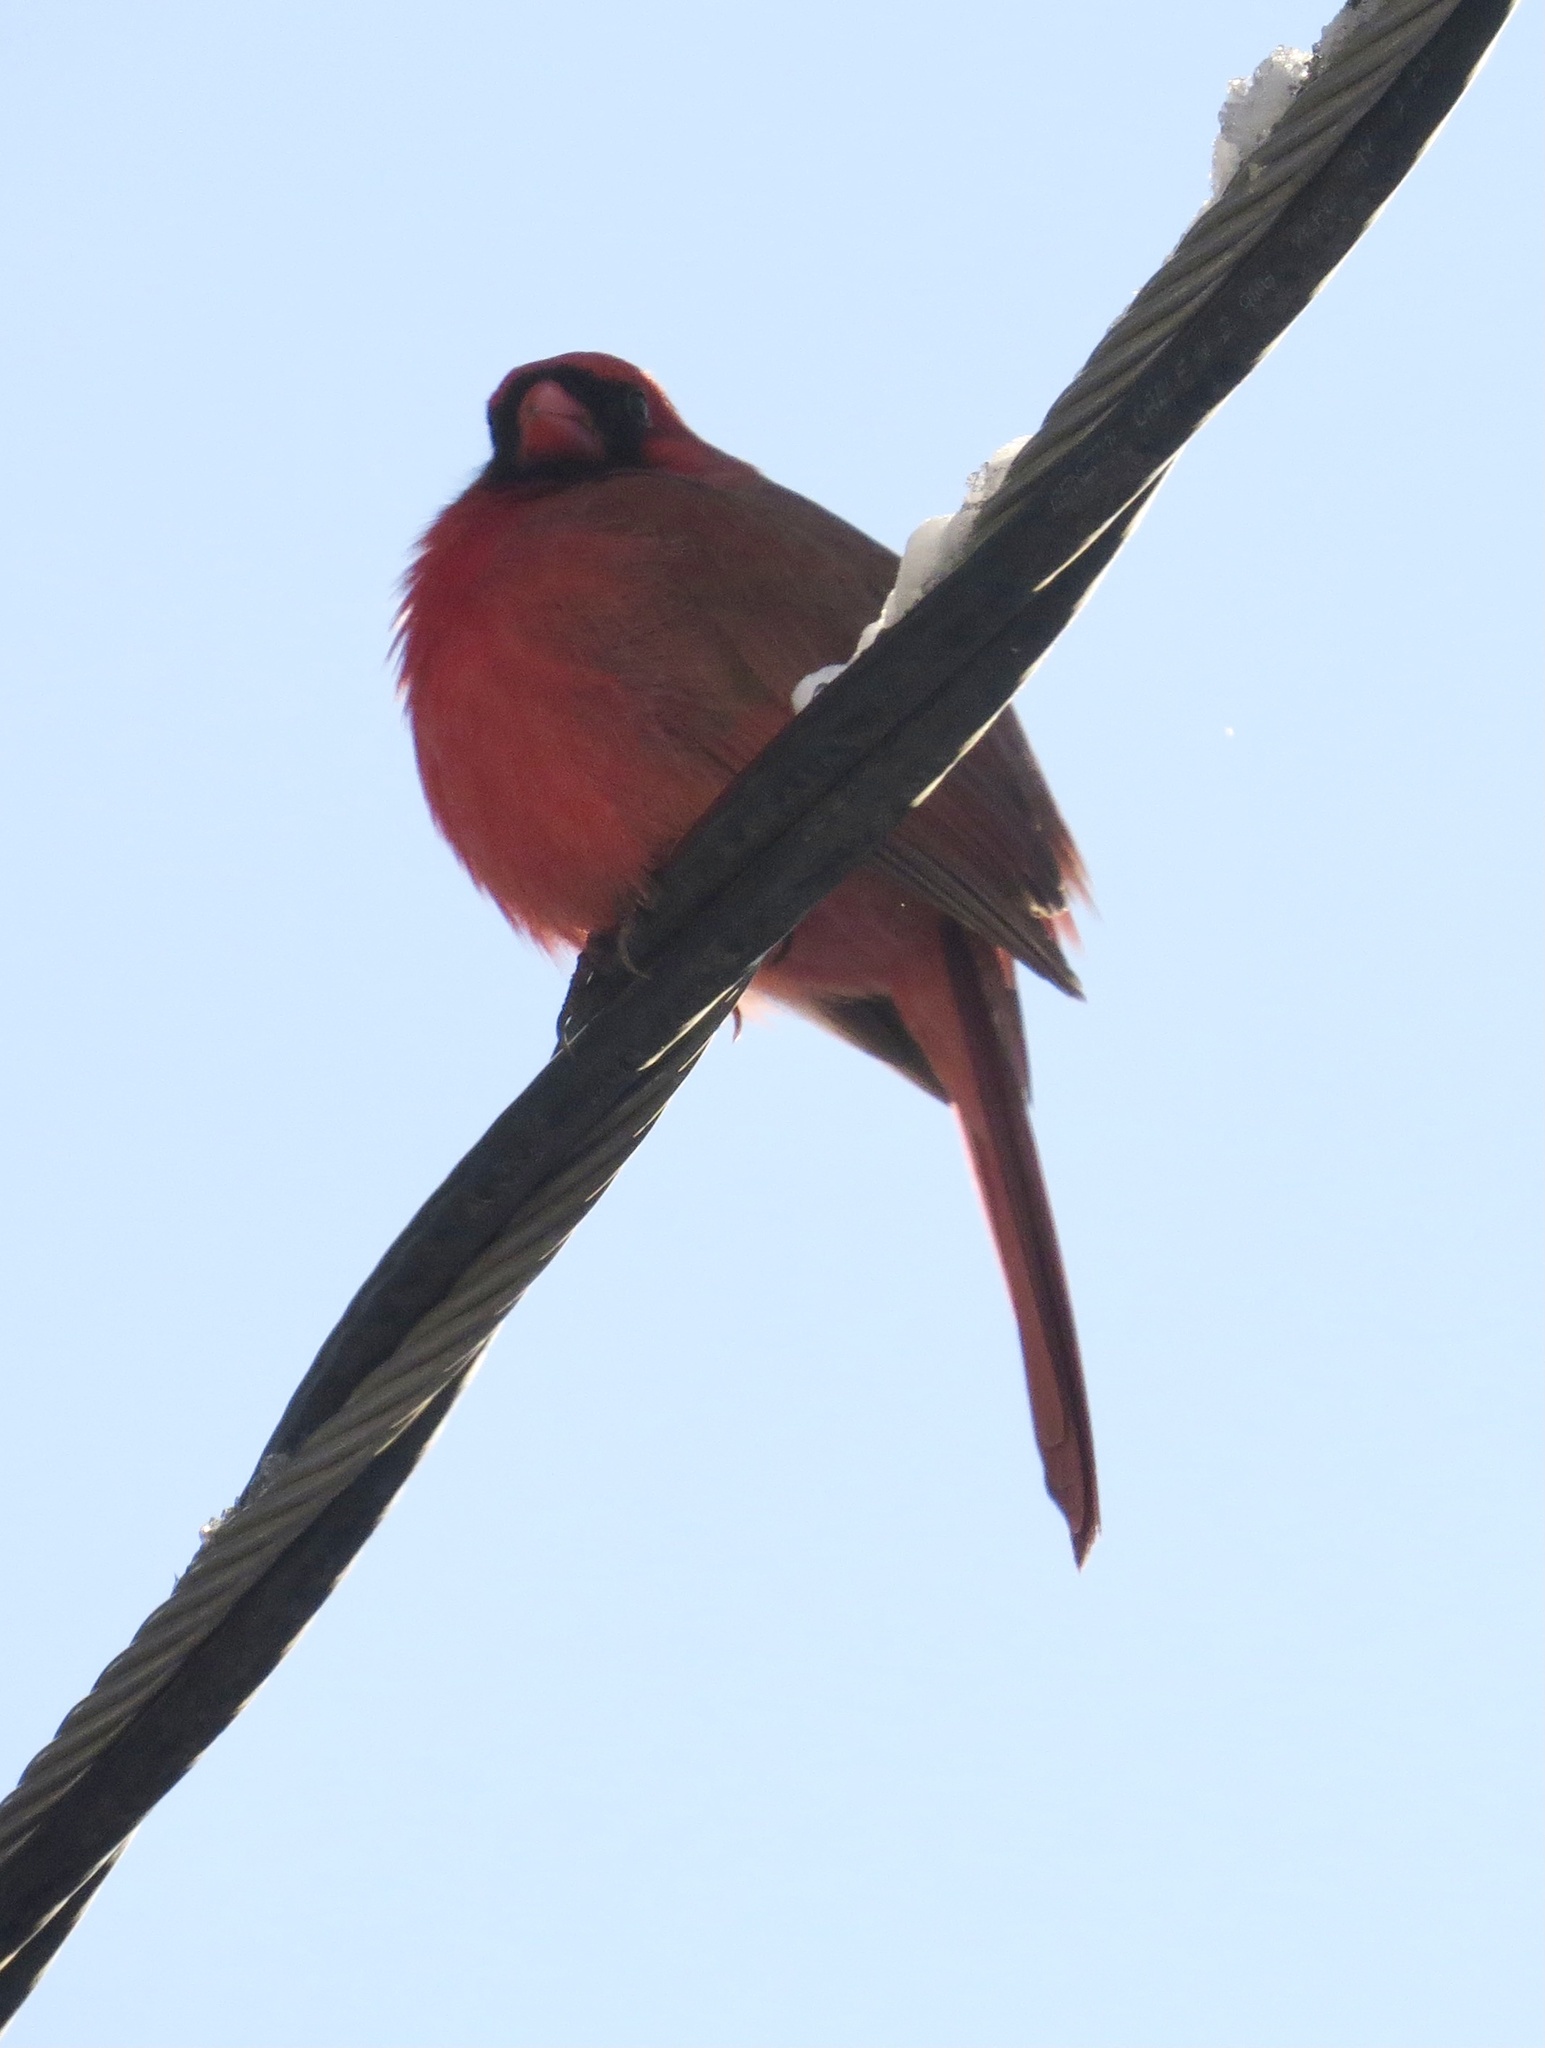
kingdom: Animalia
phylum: Chordata
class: Aves
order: Passeriformes
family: Cardinalidae
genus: Cardinalis
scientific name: Cardinalis cardinalis
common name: Northern cardinal
